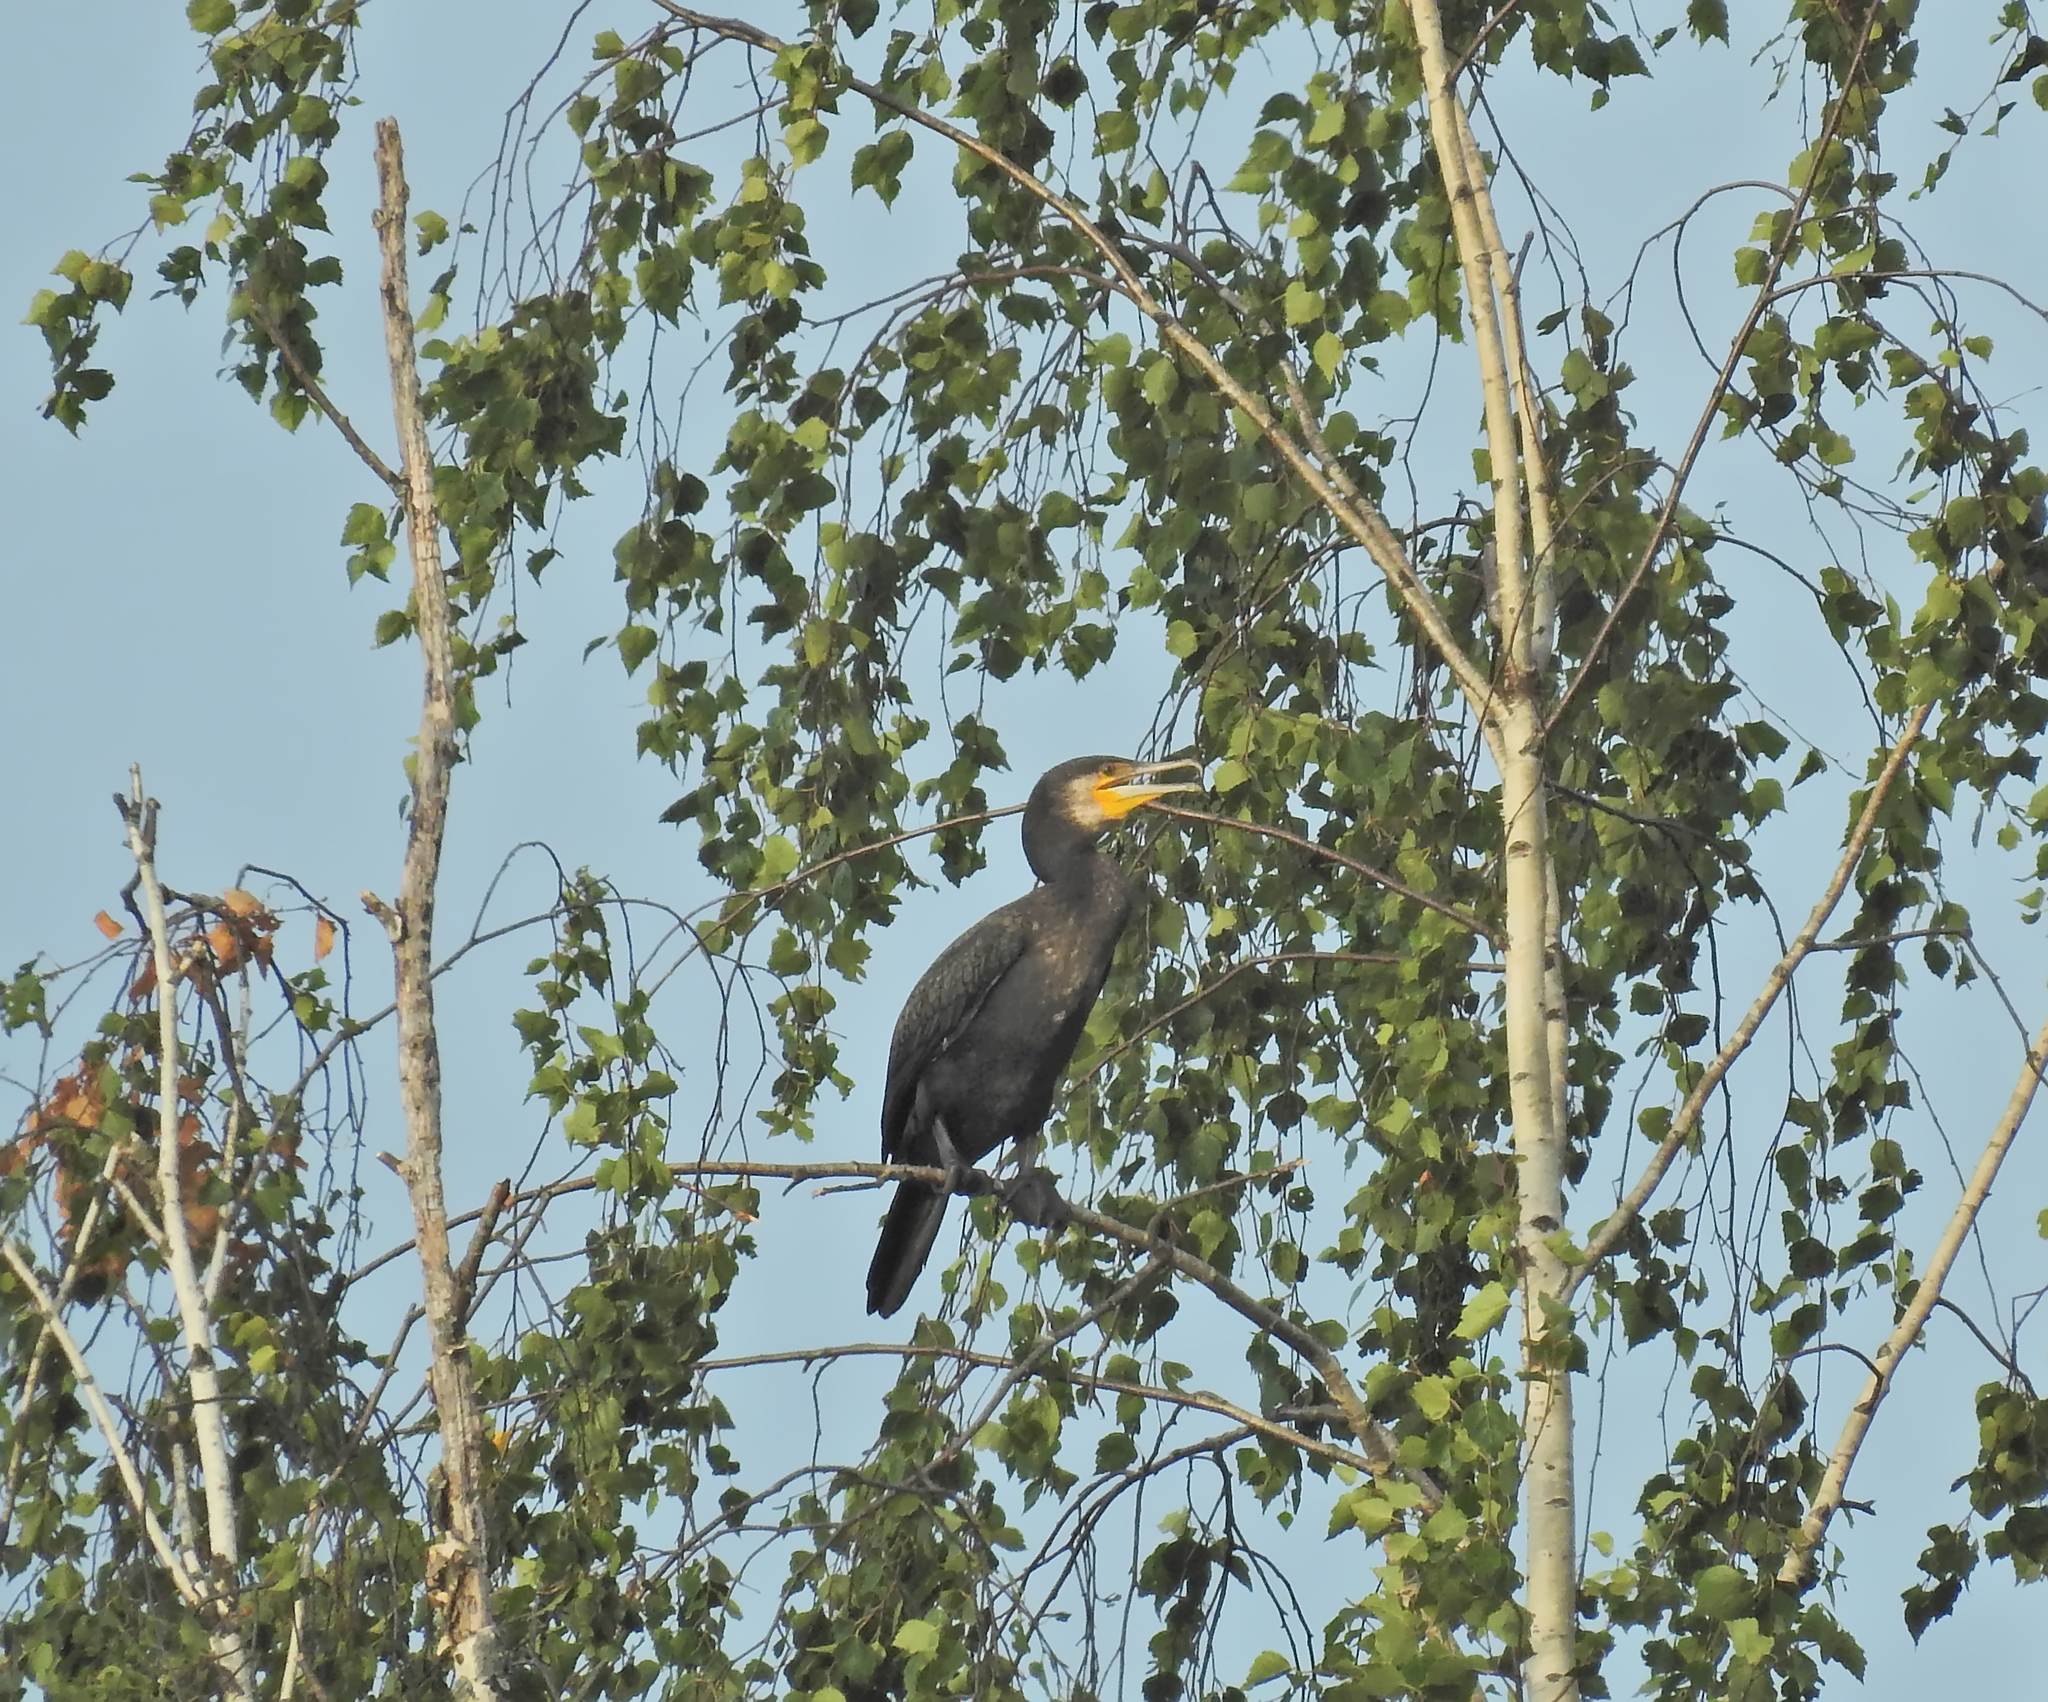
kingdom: Animalia
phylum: Chordata
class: Aves
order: Suliformes
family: Phalacrocoracidae
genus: Phalacrocorax
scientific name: Phalacrocorax carbo
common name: Great cormorant
